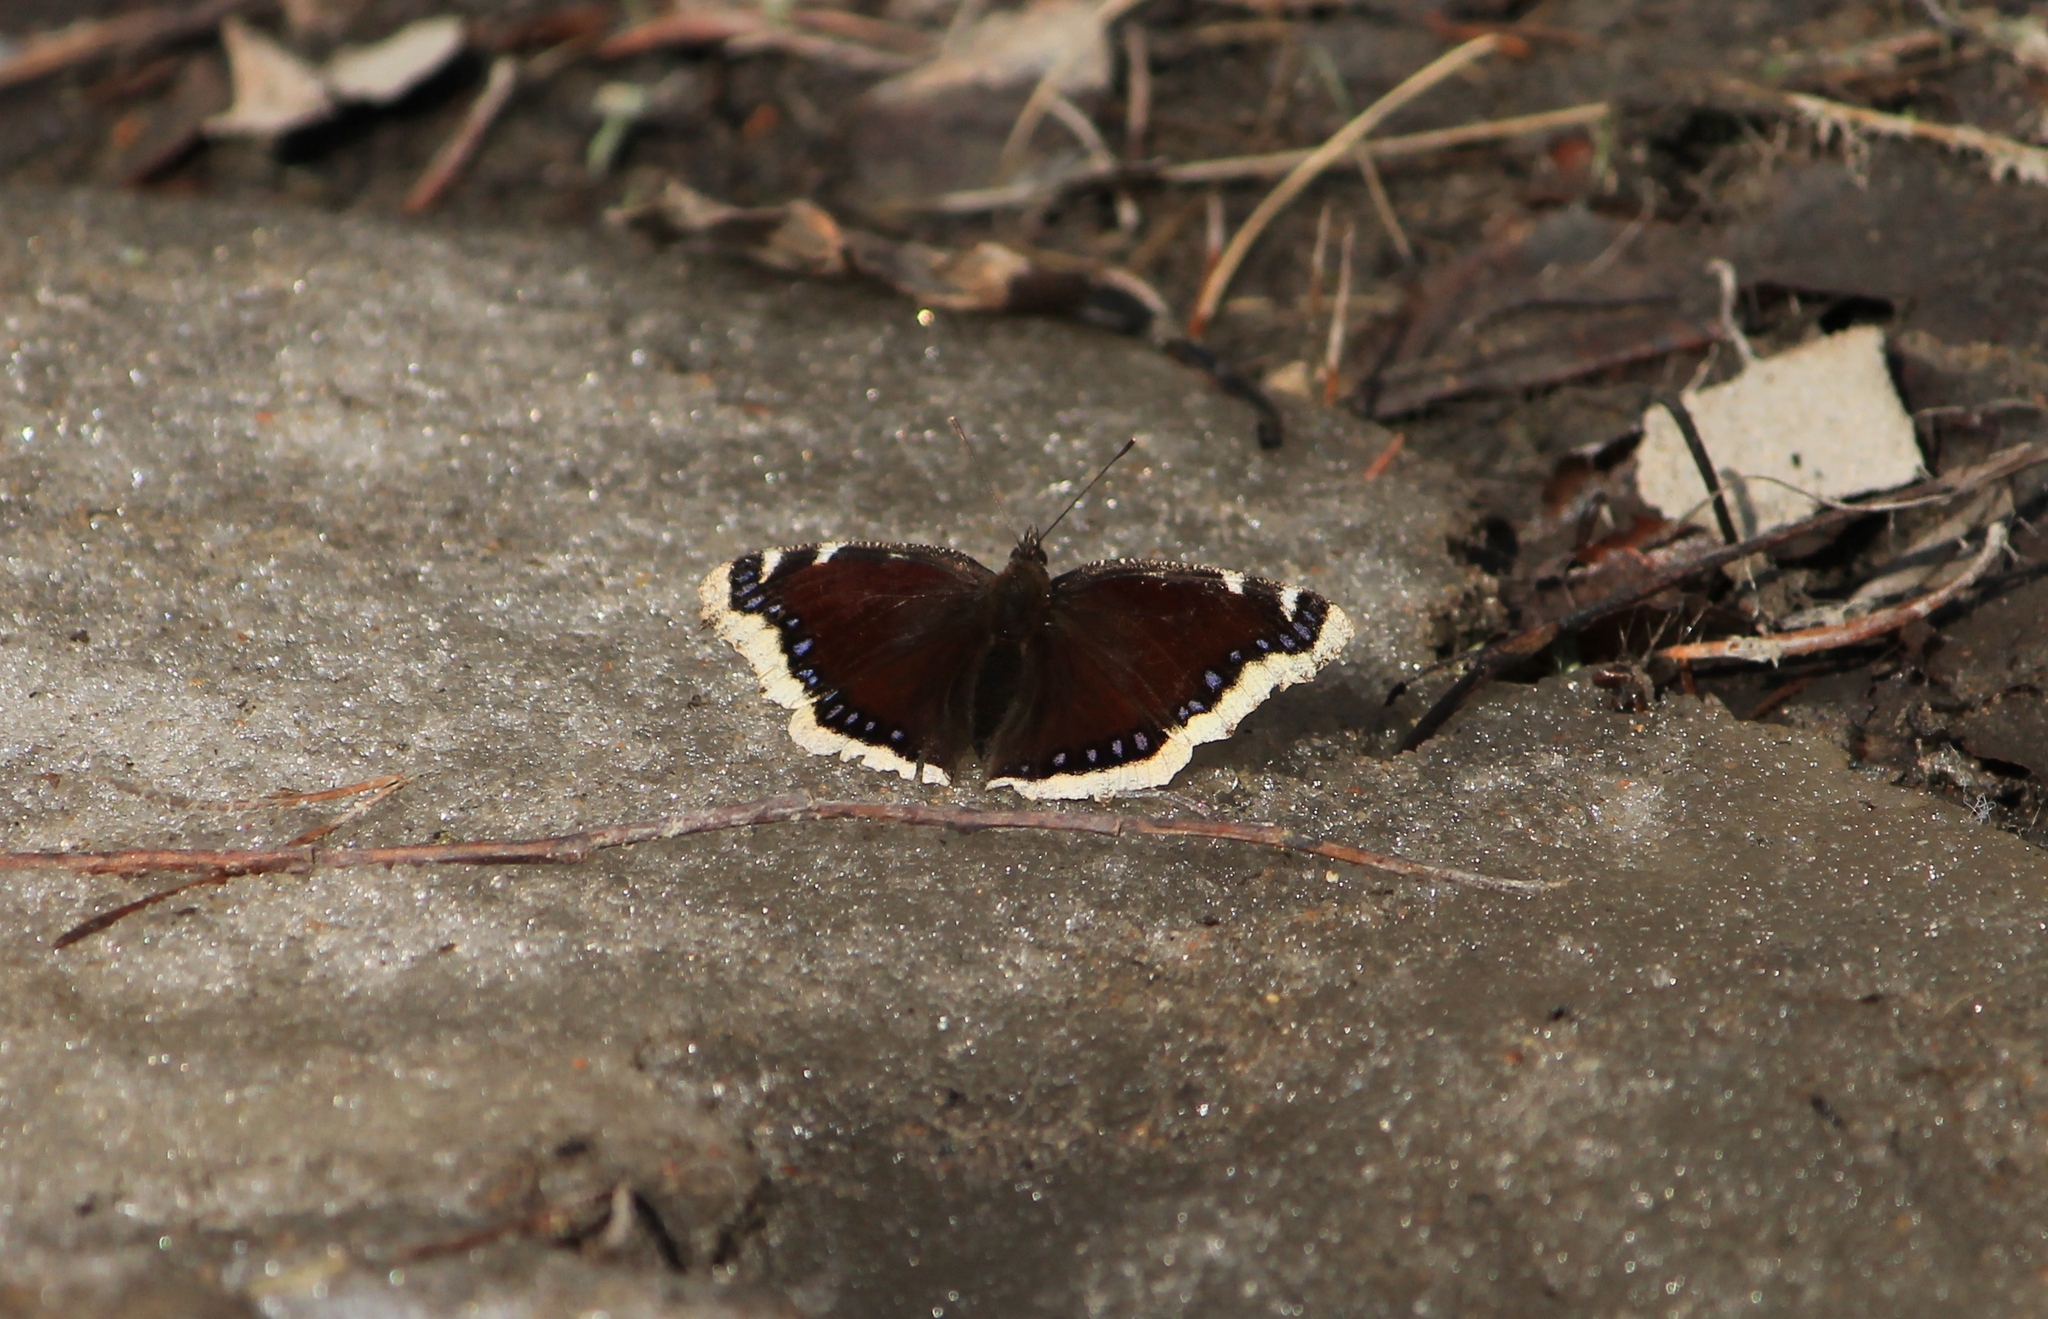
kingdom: Animalia
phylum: Arthropoda
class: Insecta
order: Lepidoptera
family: Nymphalidae
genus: Nymphalis
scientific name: Nymphalis antiopa
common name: Camberwell beauty
